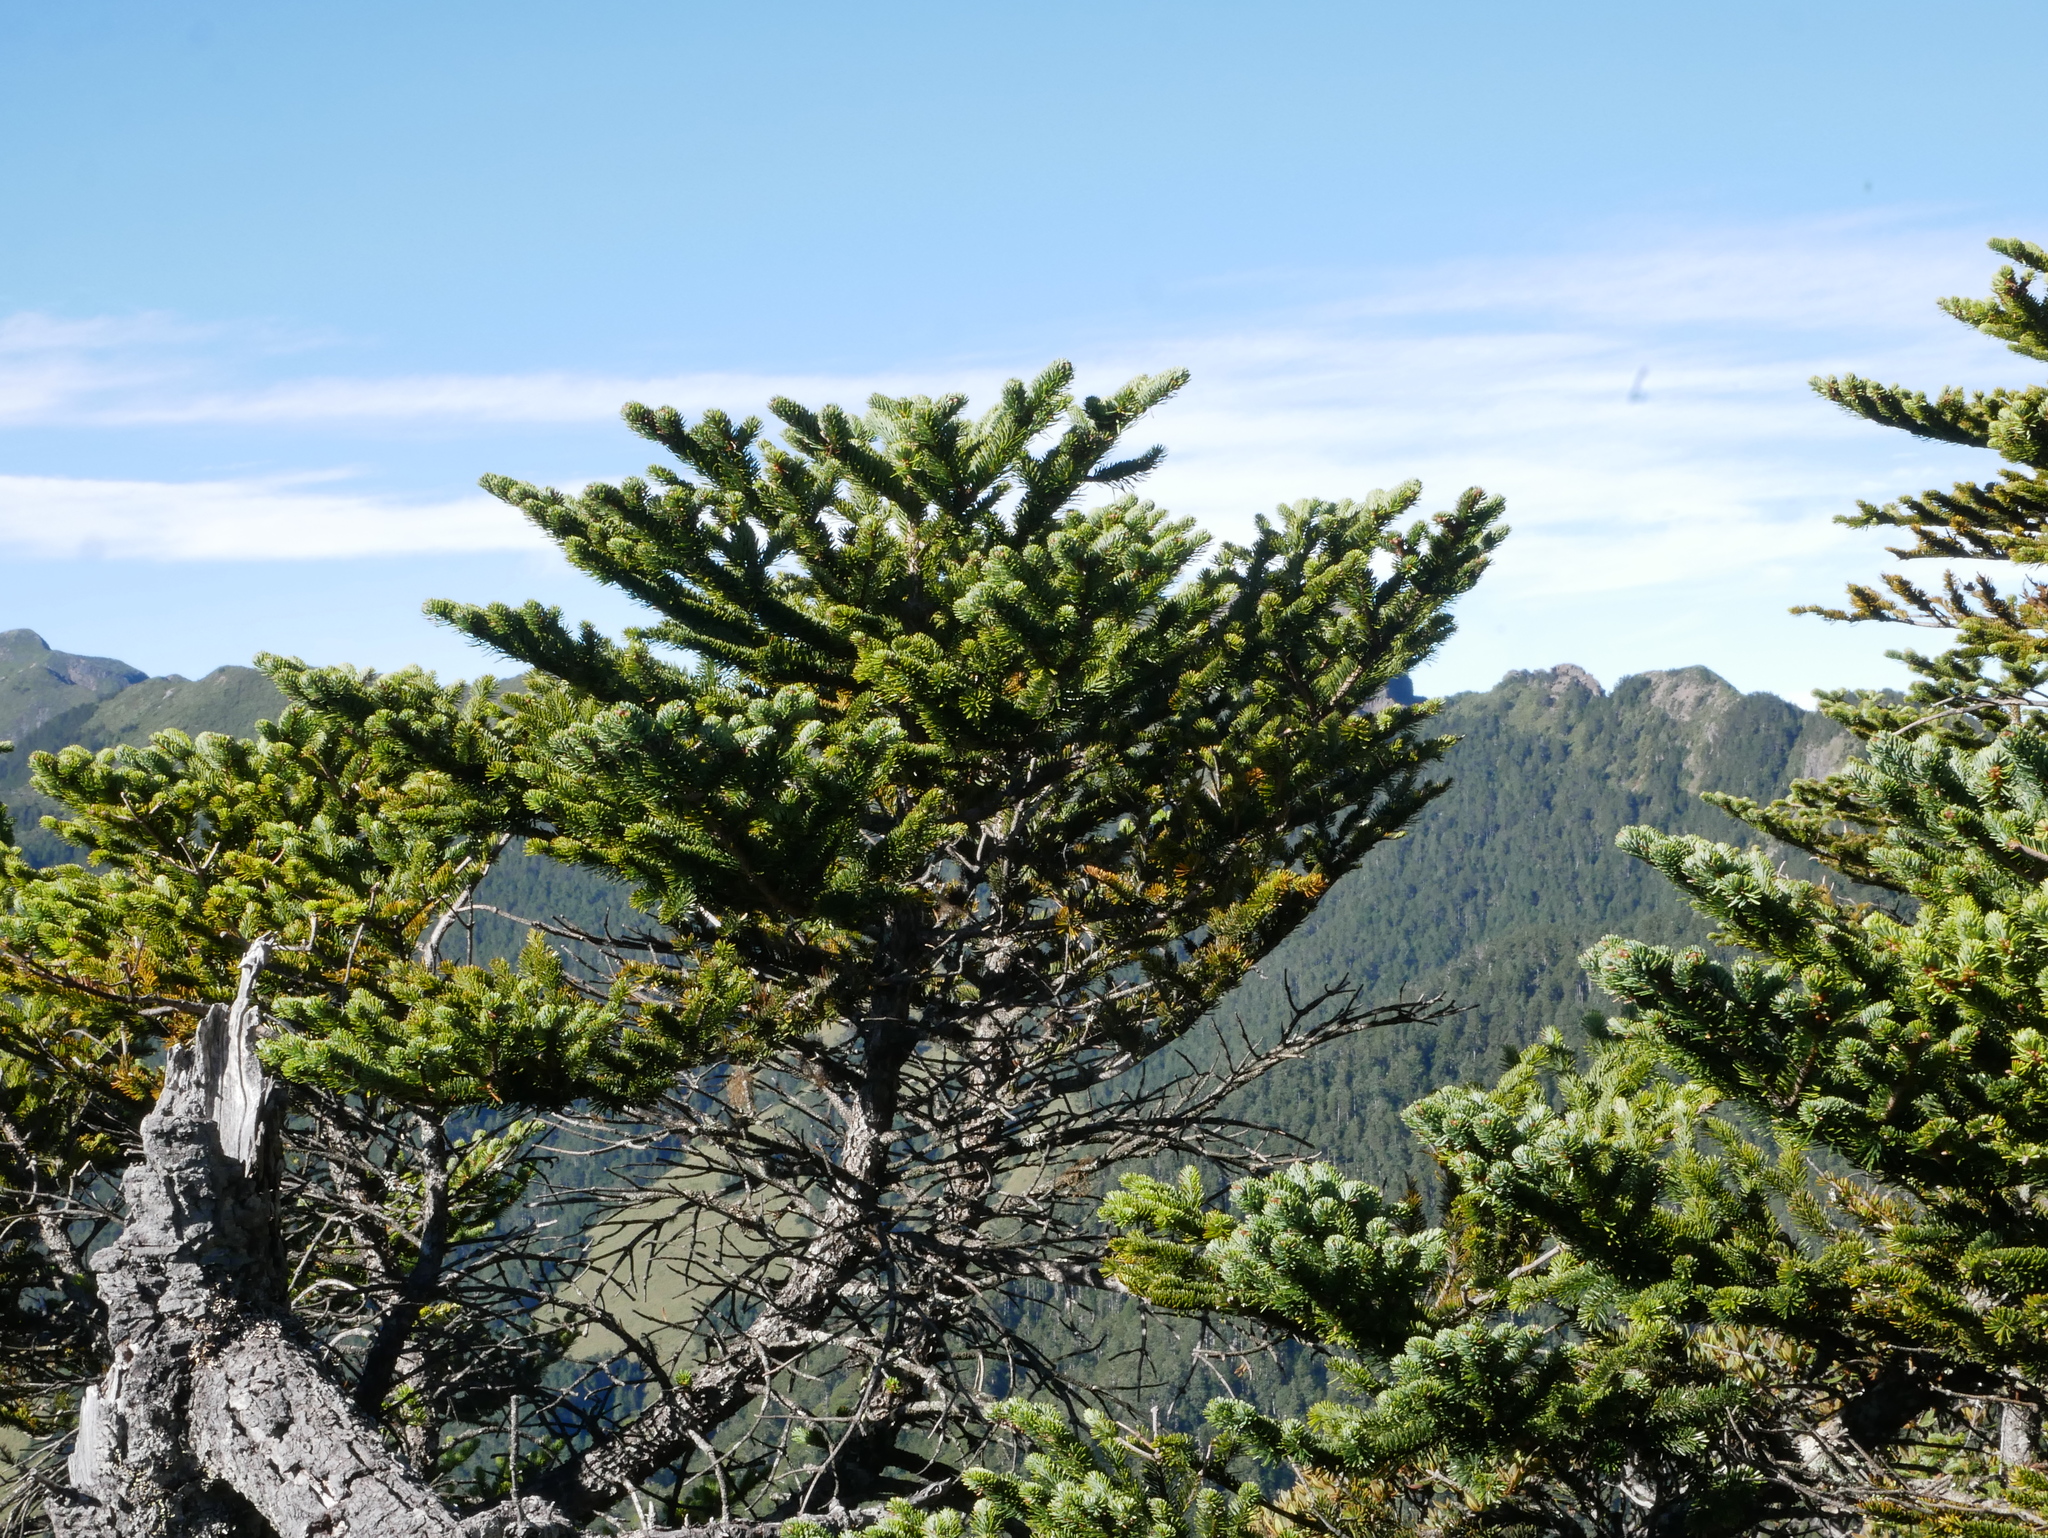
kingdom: Plantae
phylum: Tracheophyta
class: Pinopsida
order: Pinales
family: Pinaceae
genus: Abies
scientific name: Abies kawakamii
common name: Taiwan fir
